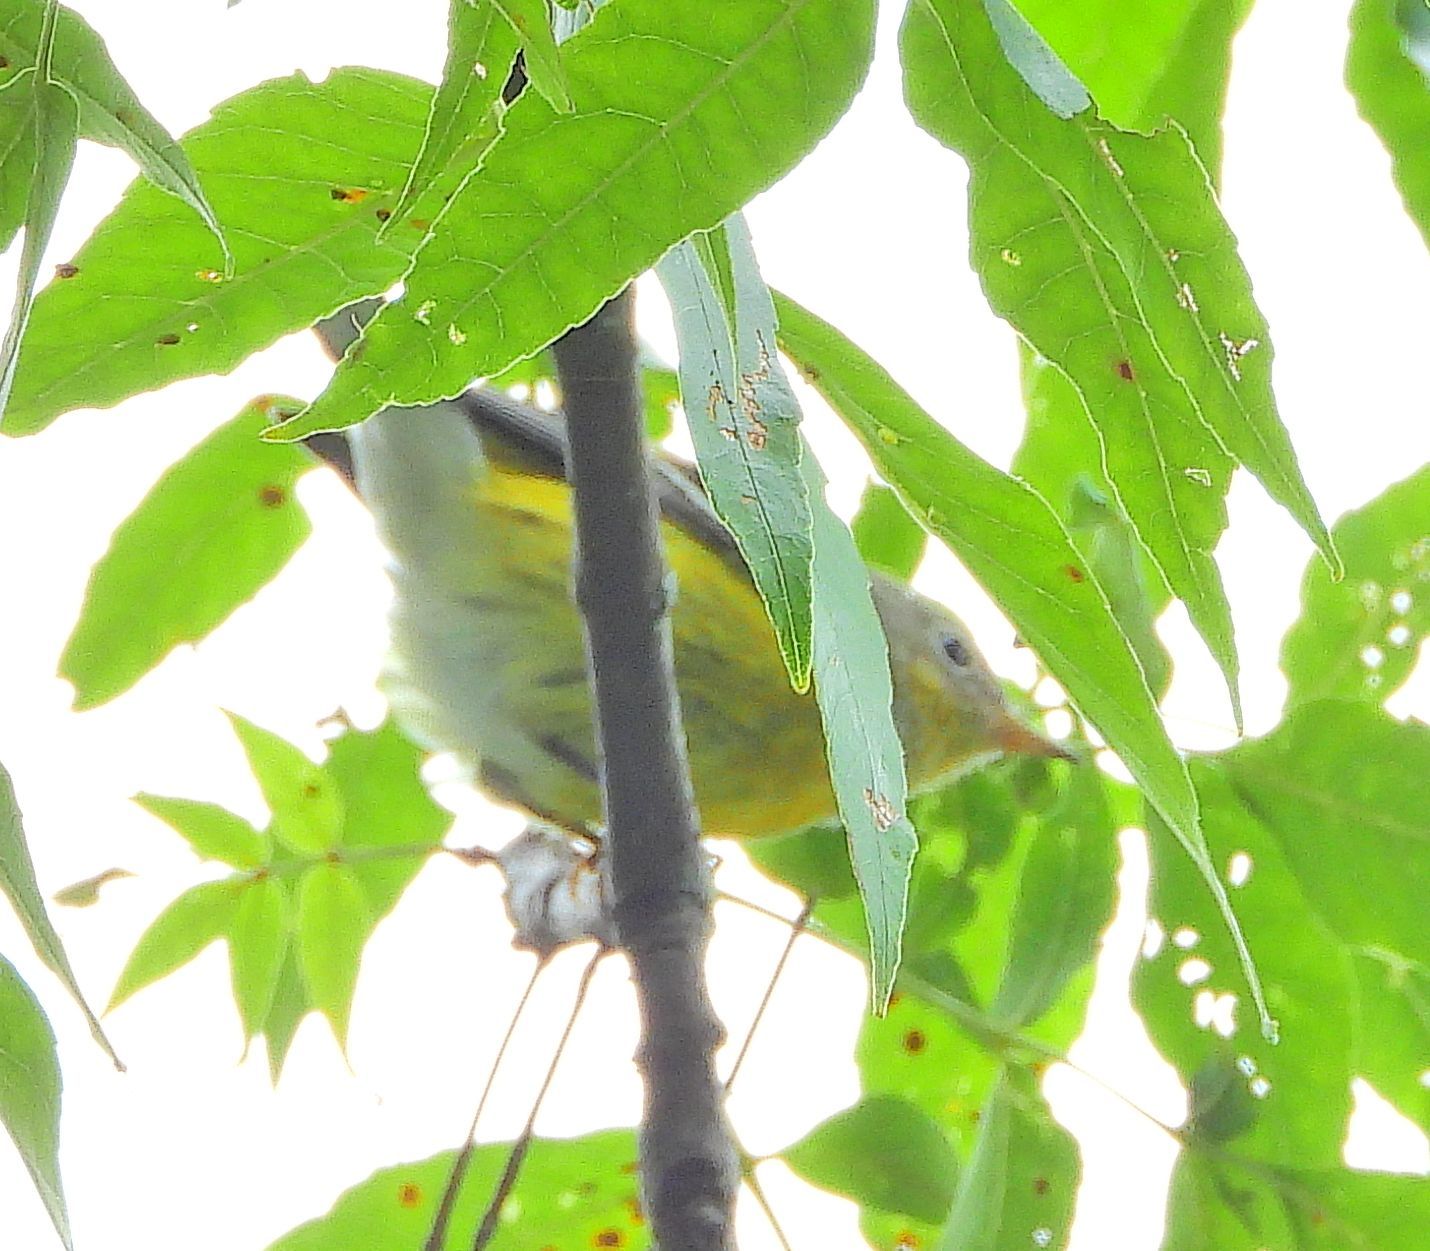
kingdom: Animalia
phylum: Chordata
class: Aves
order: Passeriformes
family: Parulidae
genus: Setophaga
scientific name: Setophaga magnolia
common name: Magnolia warbler
